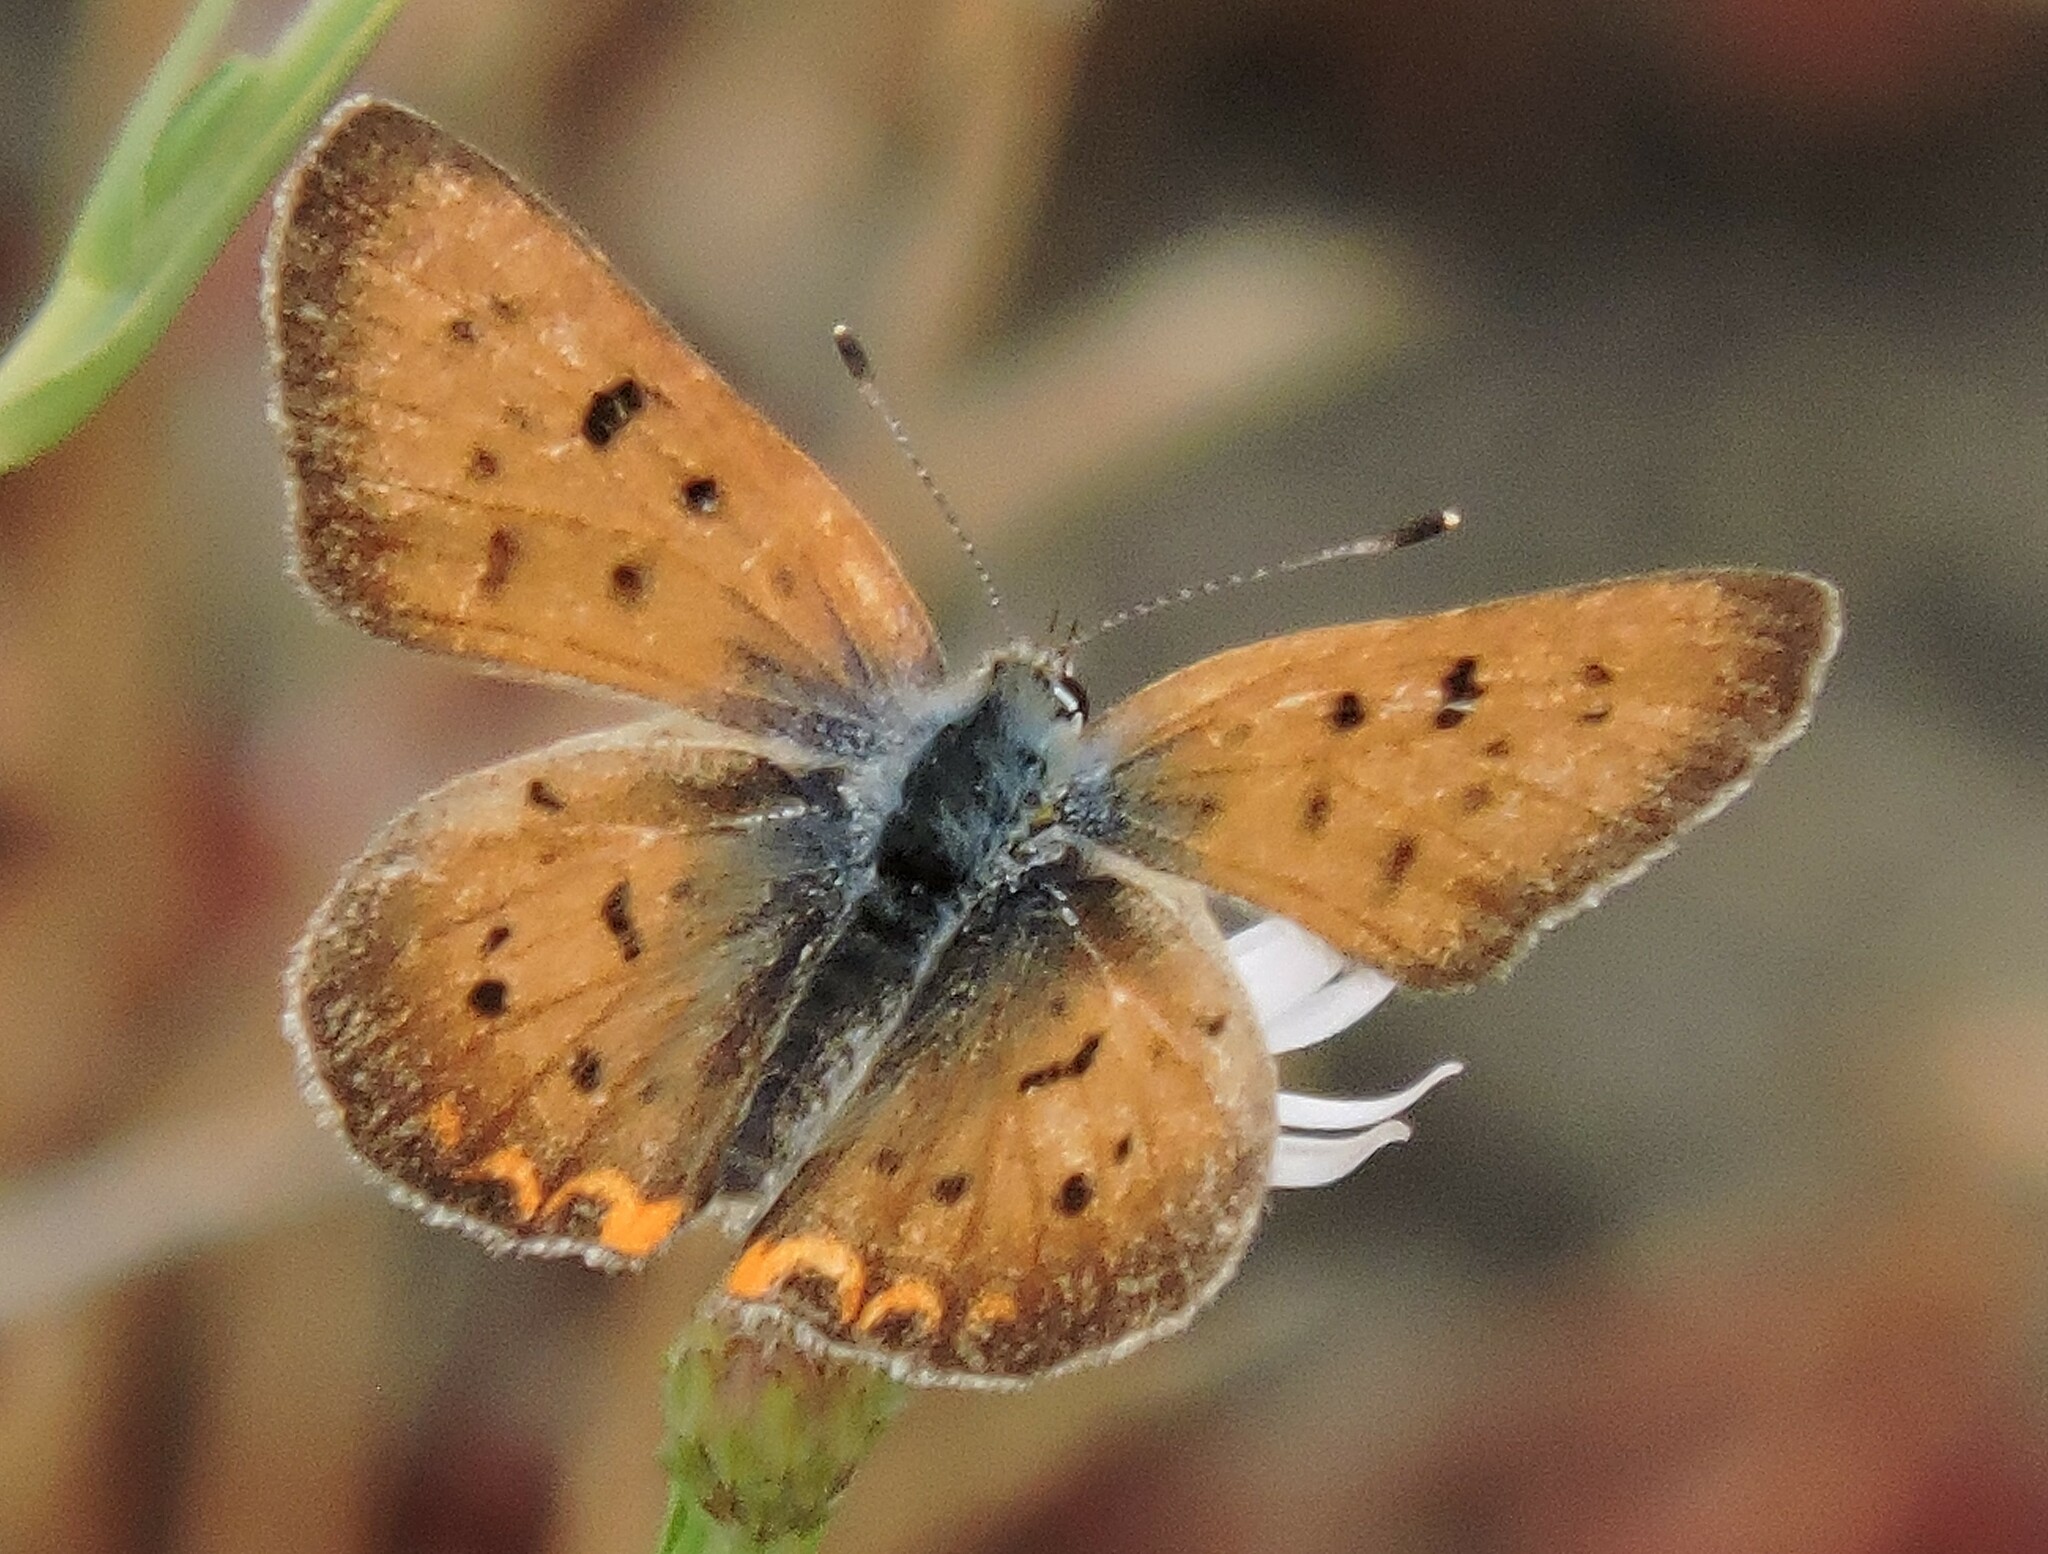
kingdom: Animalia
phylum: Arthropoda
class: Insecta
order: Lepidoptera
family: Lycaenidae
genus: Tharsalea
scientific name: Tharsalea helloides
